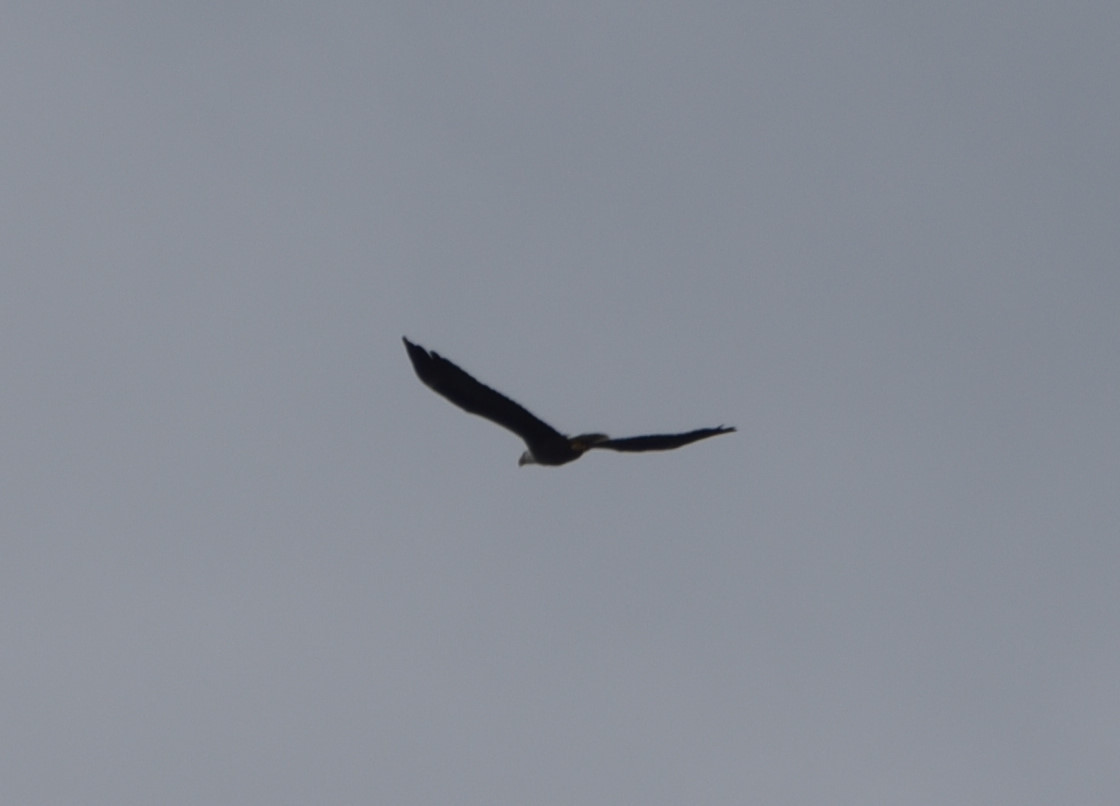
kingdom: Animalia
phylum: Chordata
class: Aves
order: Accipitriformes
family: Accipitridae
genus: Haliaeetus
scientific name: Haliaeetus leucocephalus
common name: Bald eagle
